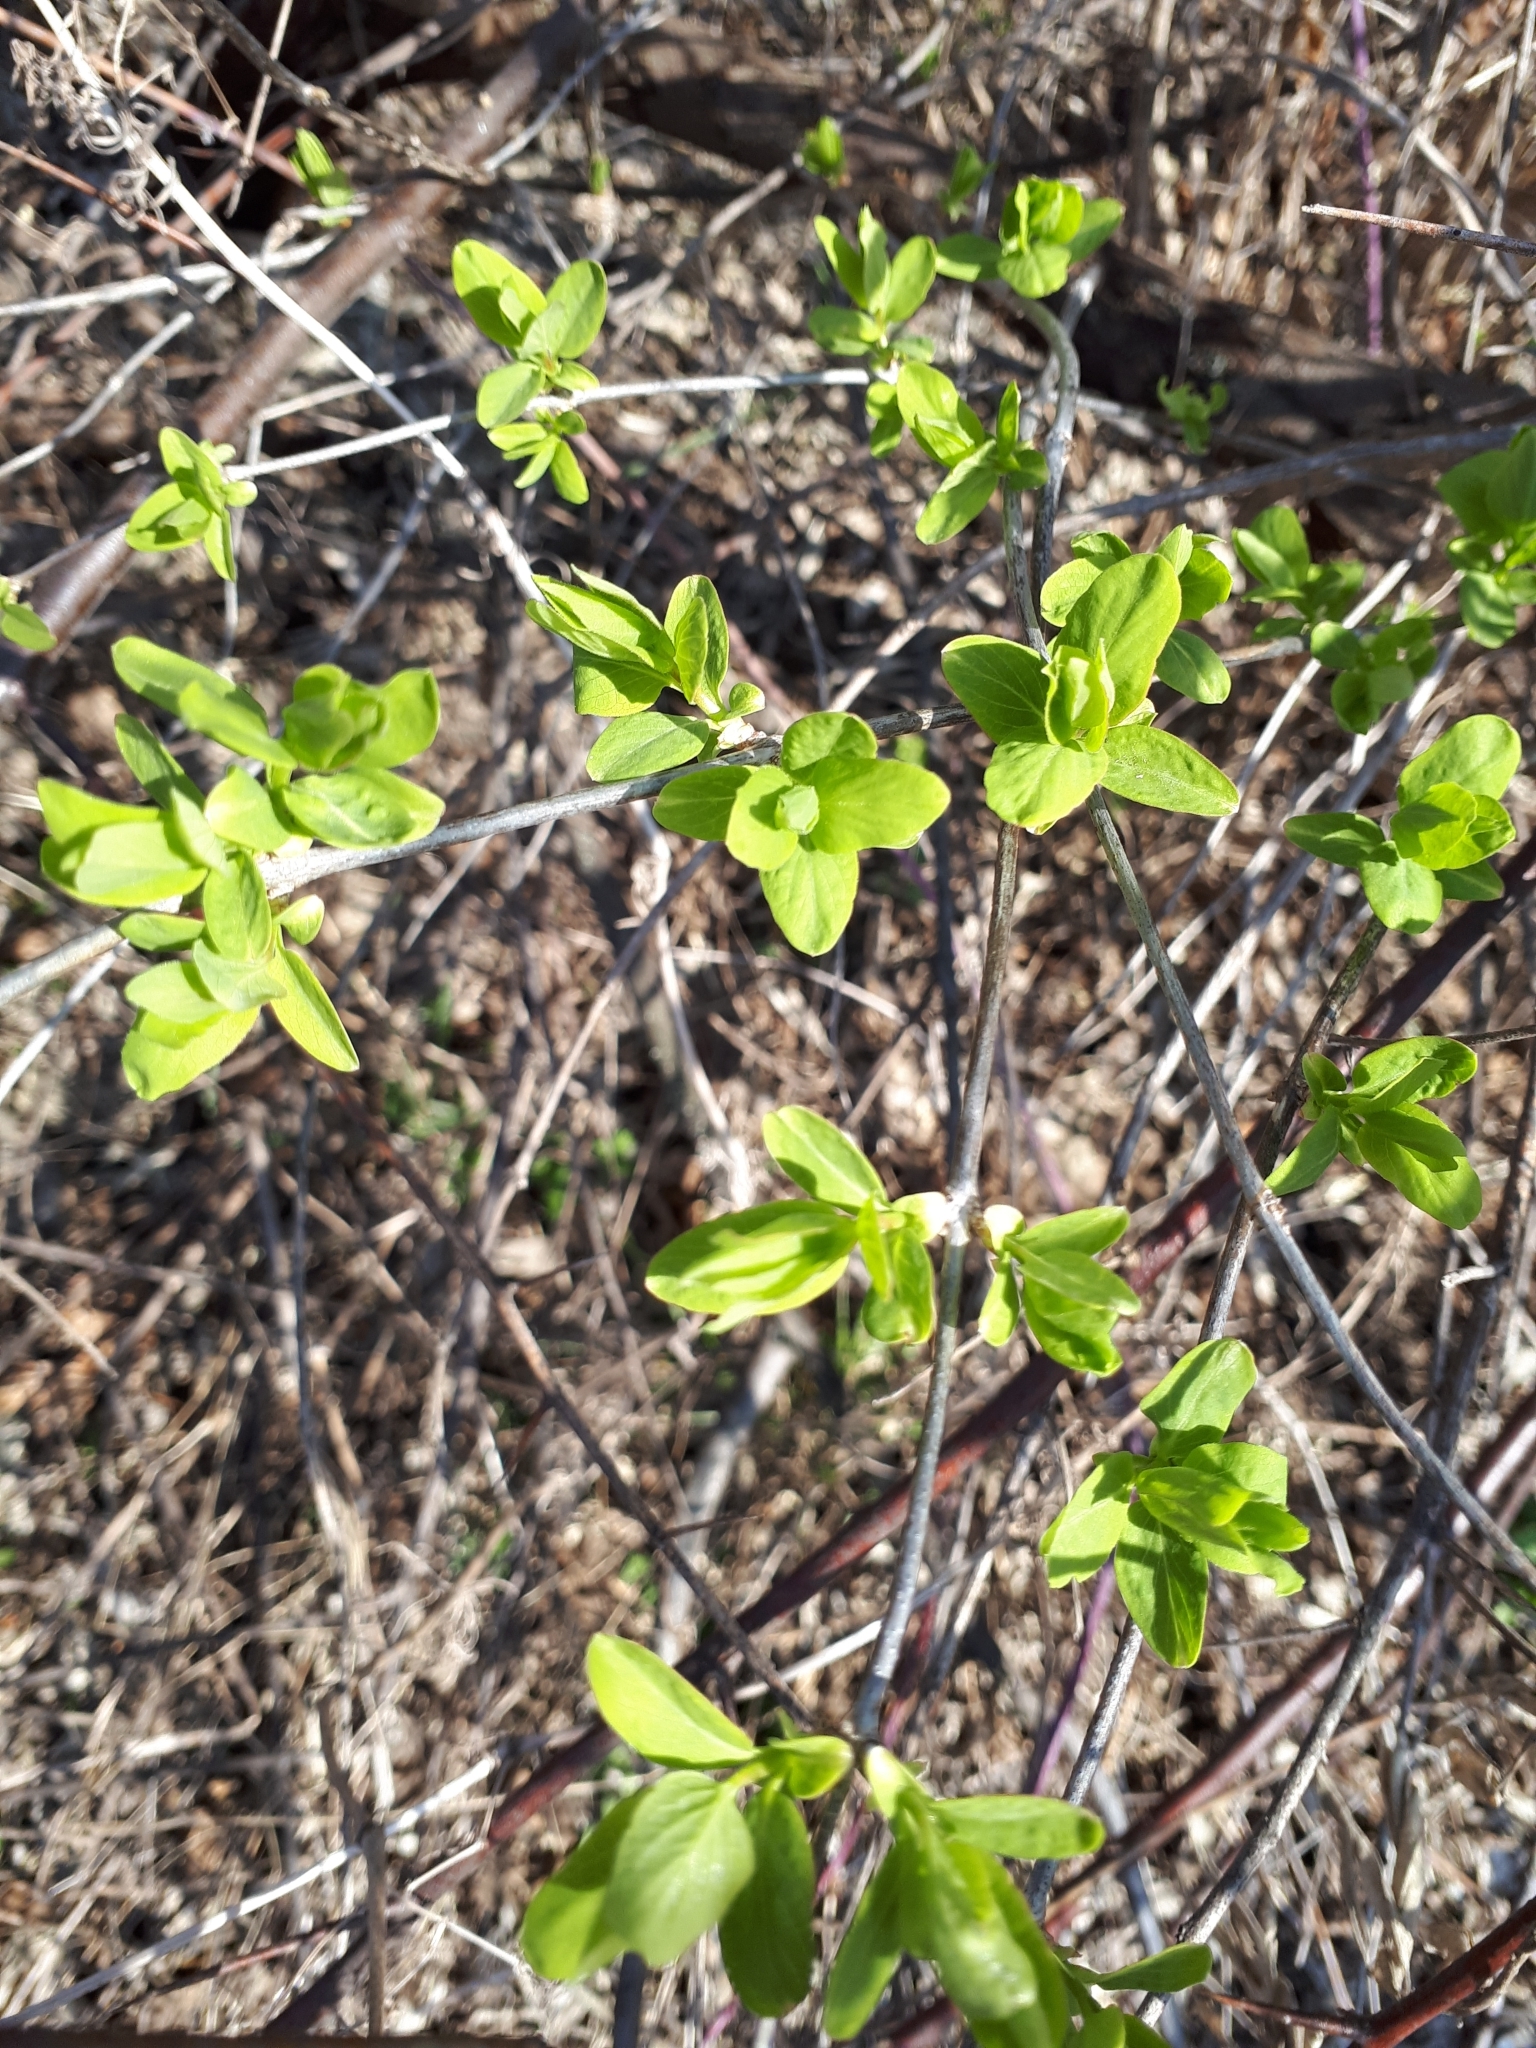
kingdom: Plantae
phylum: Tracheophyta
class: Magnoliopsida
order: Dipsacales
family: Caprifoliaceae
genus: Lonicera
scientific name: Lonicera tatarica
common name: Tatarian honeysuckle
